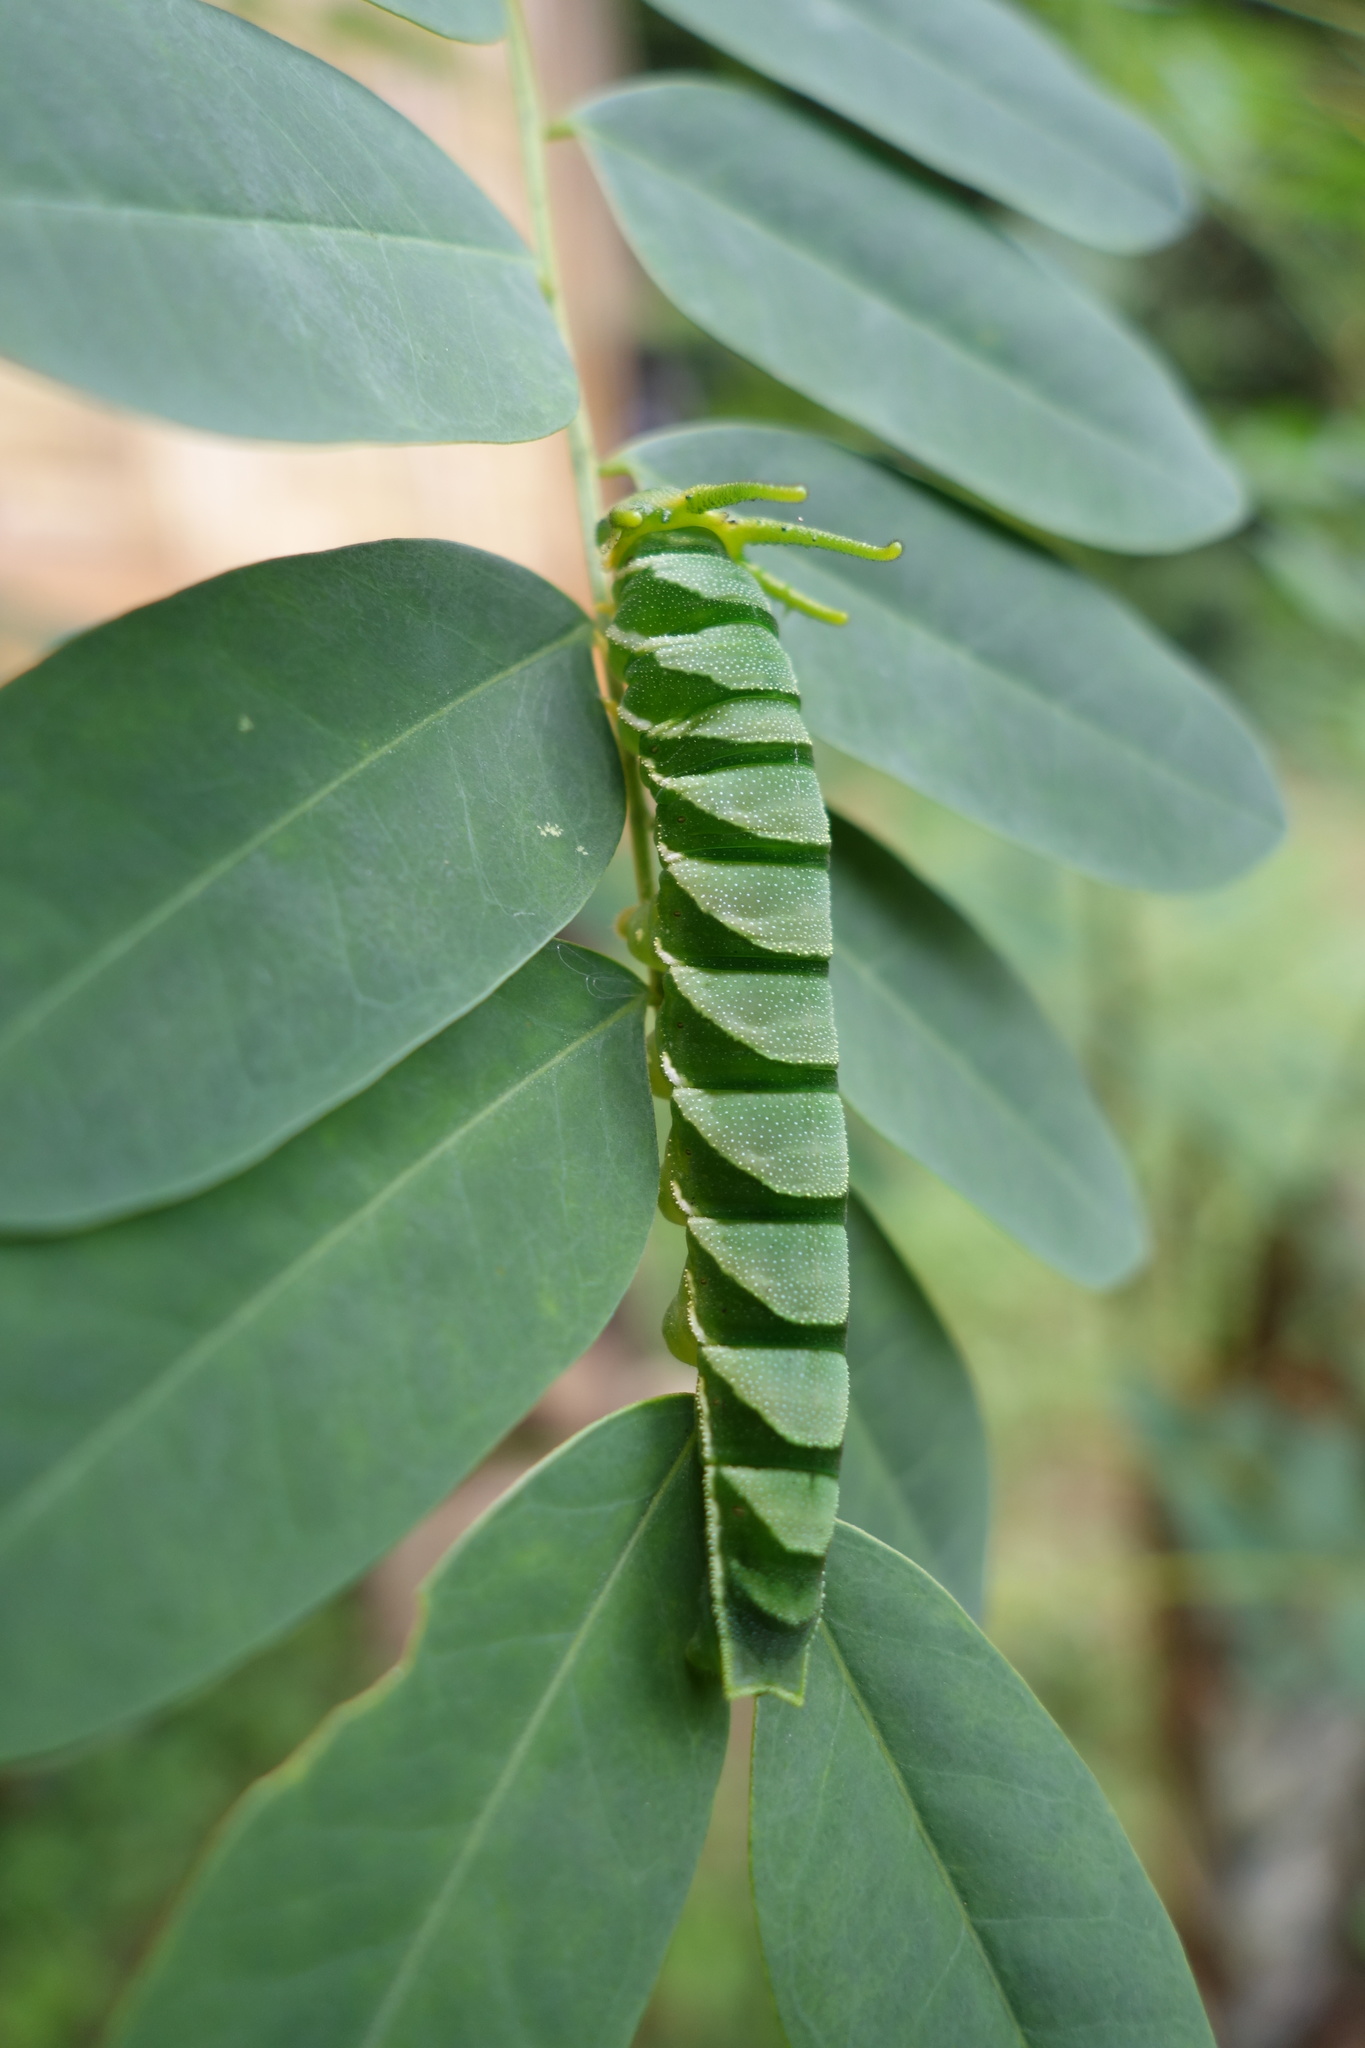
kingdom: Animalia
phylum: Arthropoda
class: Insecta
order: Lepidoptera
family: Nymphalidae
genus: Polyura
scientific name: Polyura hebe
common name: Plain nawab
